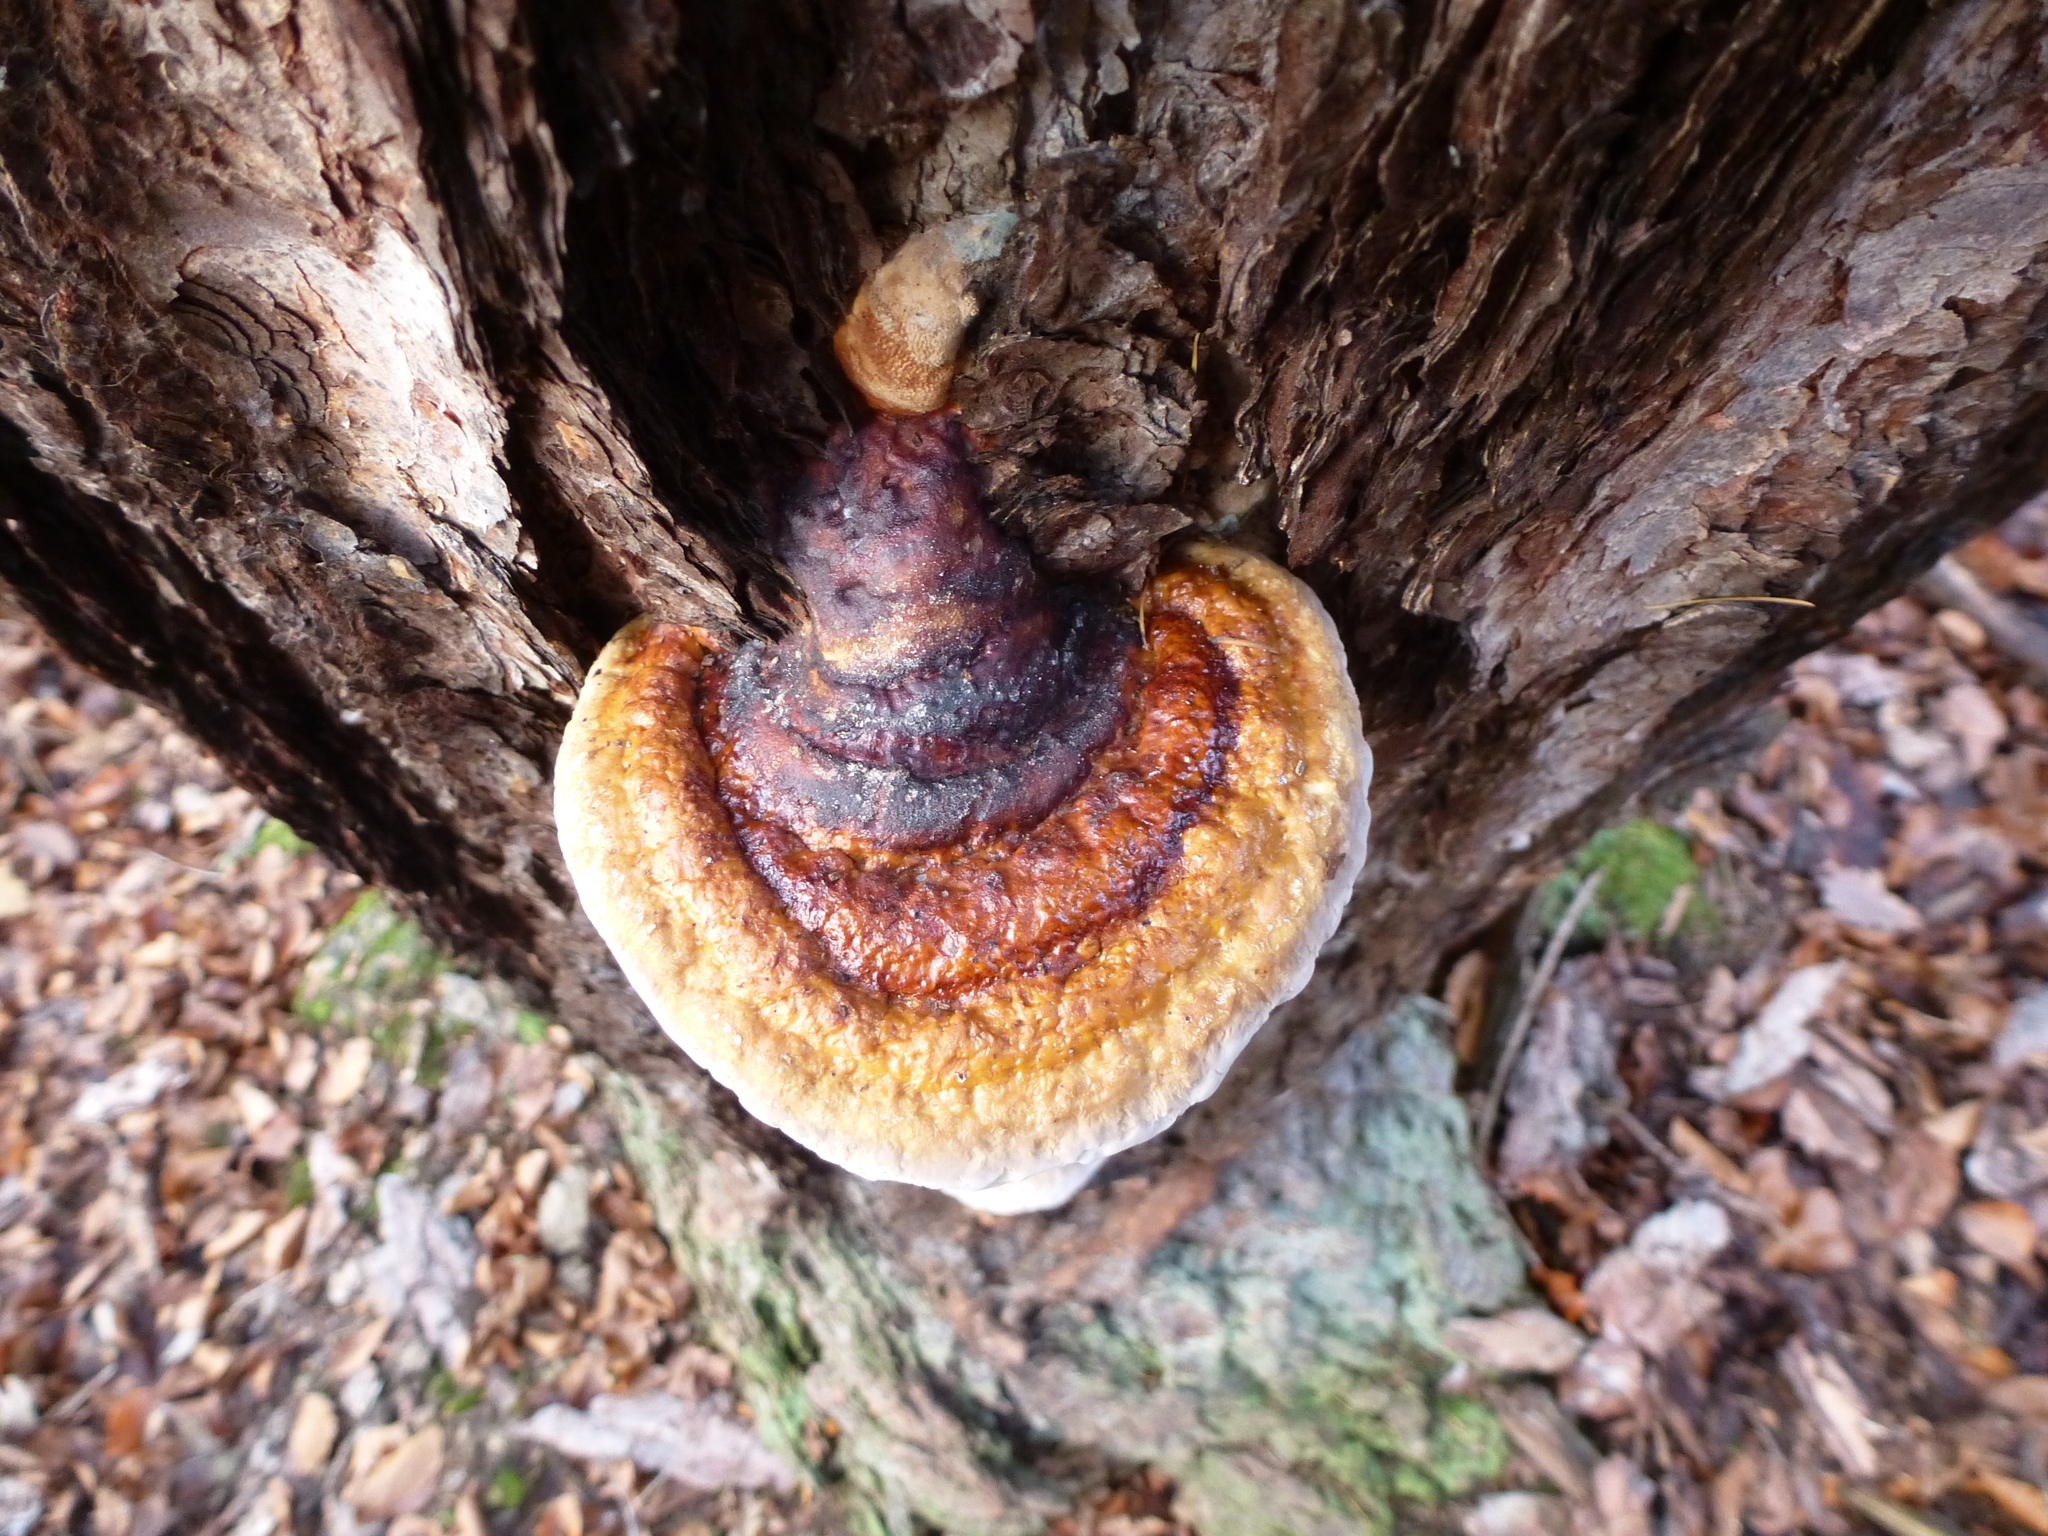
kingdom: Fungi
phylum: Basidiomycota
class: Agaricomycetes
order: Polyporales
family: Fomitopsidaceae
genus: Fomitopsis
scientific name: Fomitopsis pinicola
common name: Red-belted bracket
